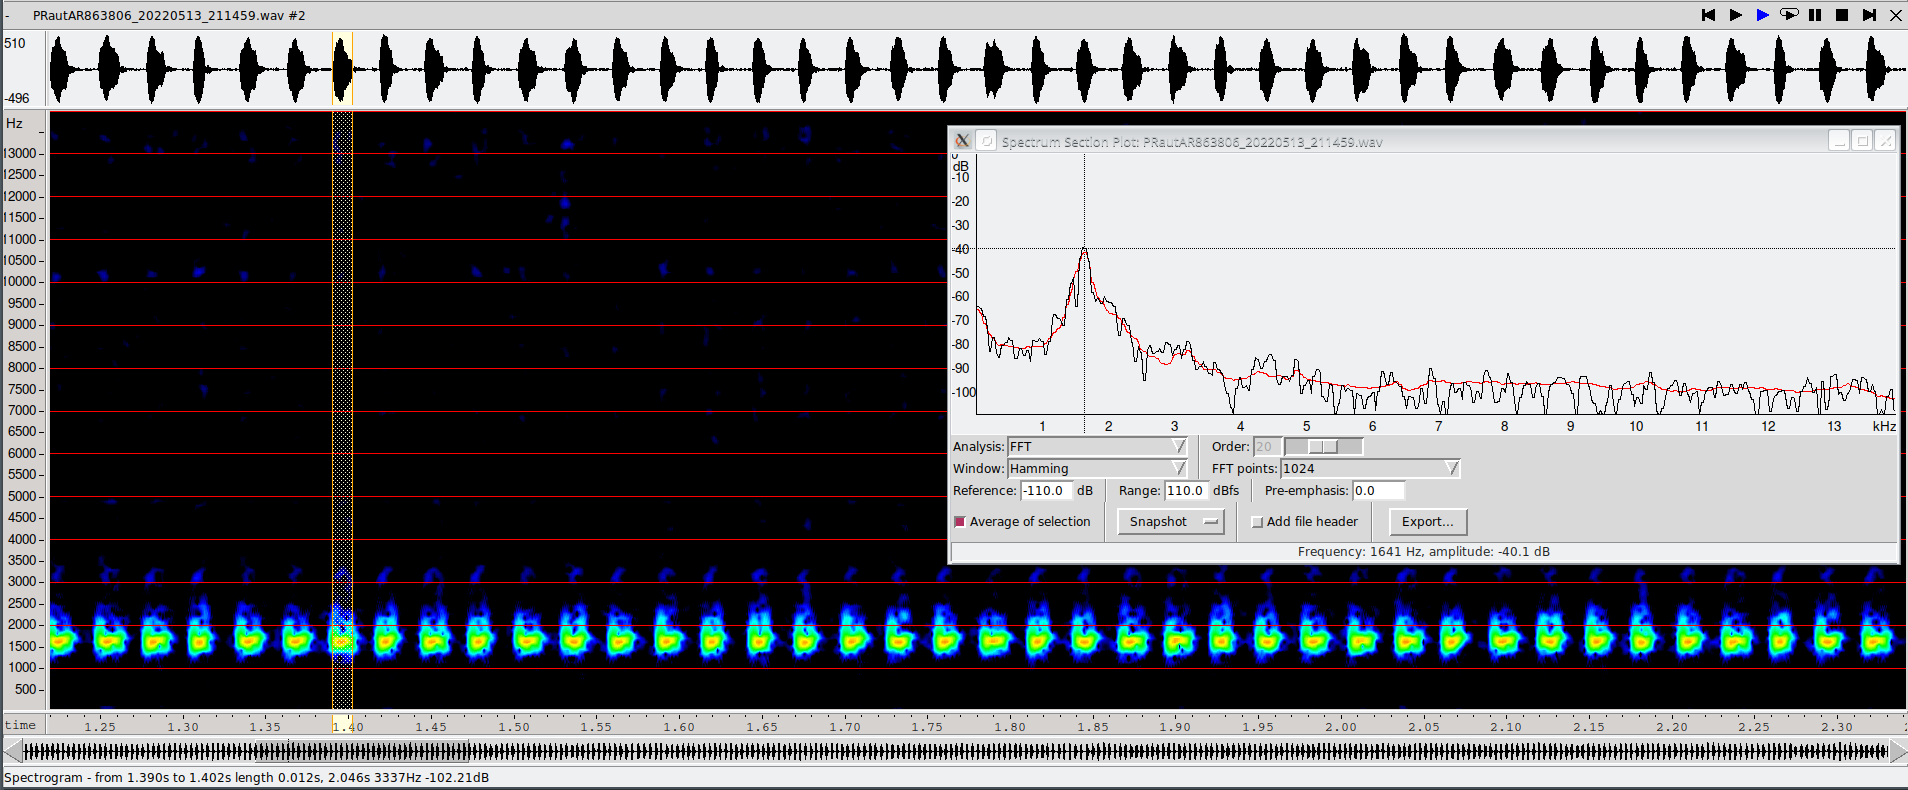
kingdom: Animalia
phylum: Arthropoda
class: Insecta
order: Orthoptera
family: Gryllotalpidae
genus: Gryllotalpa
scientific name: Gryllotalpa gryllotalpa
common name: European mole cricket
